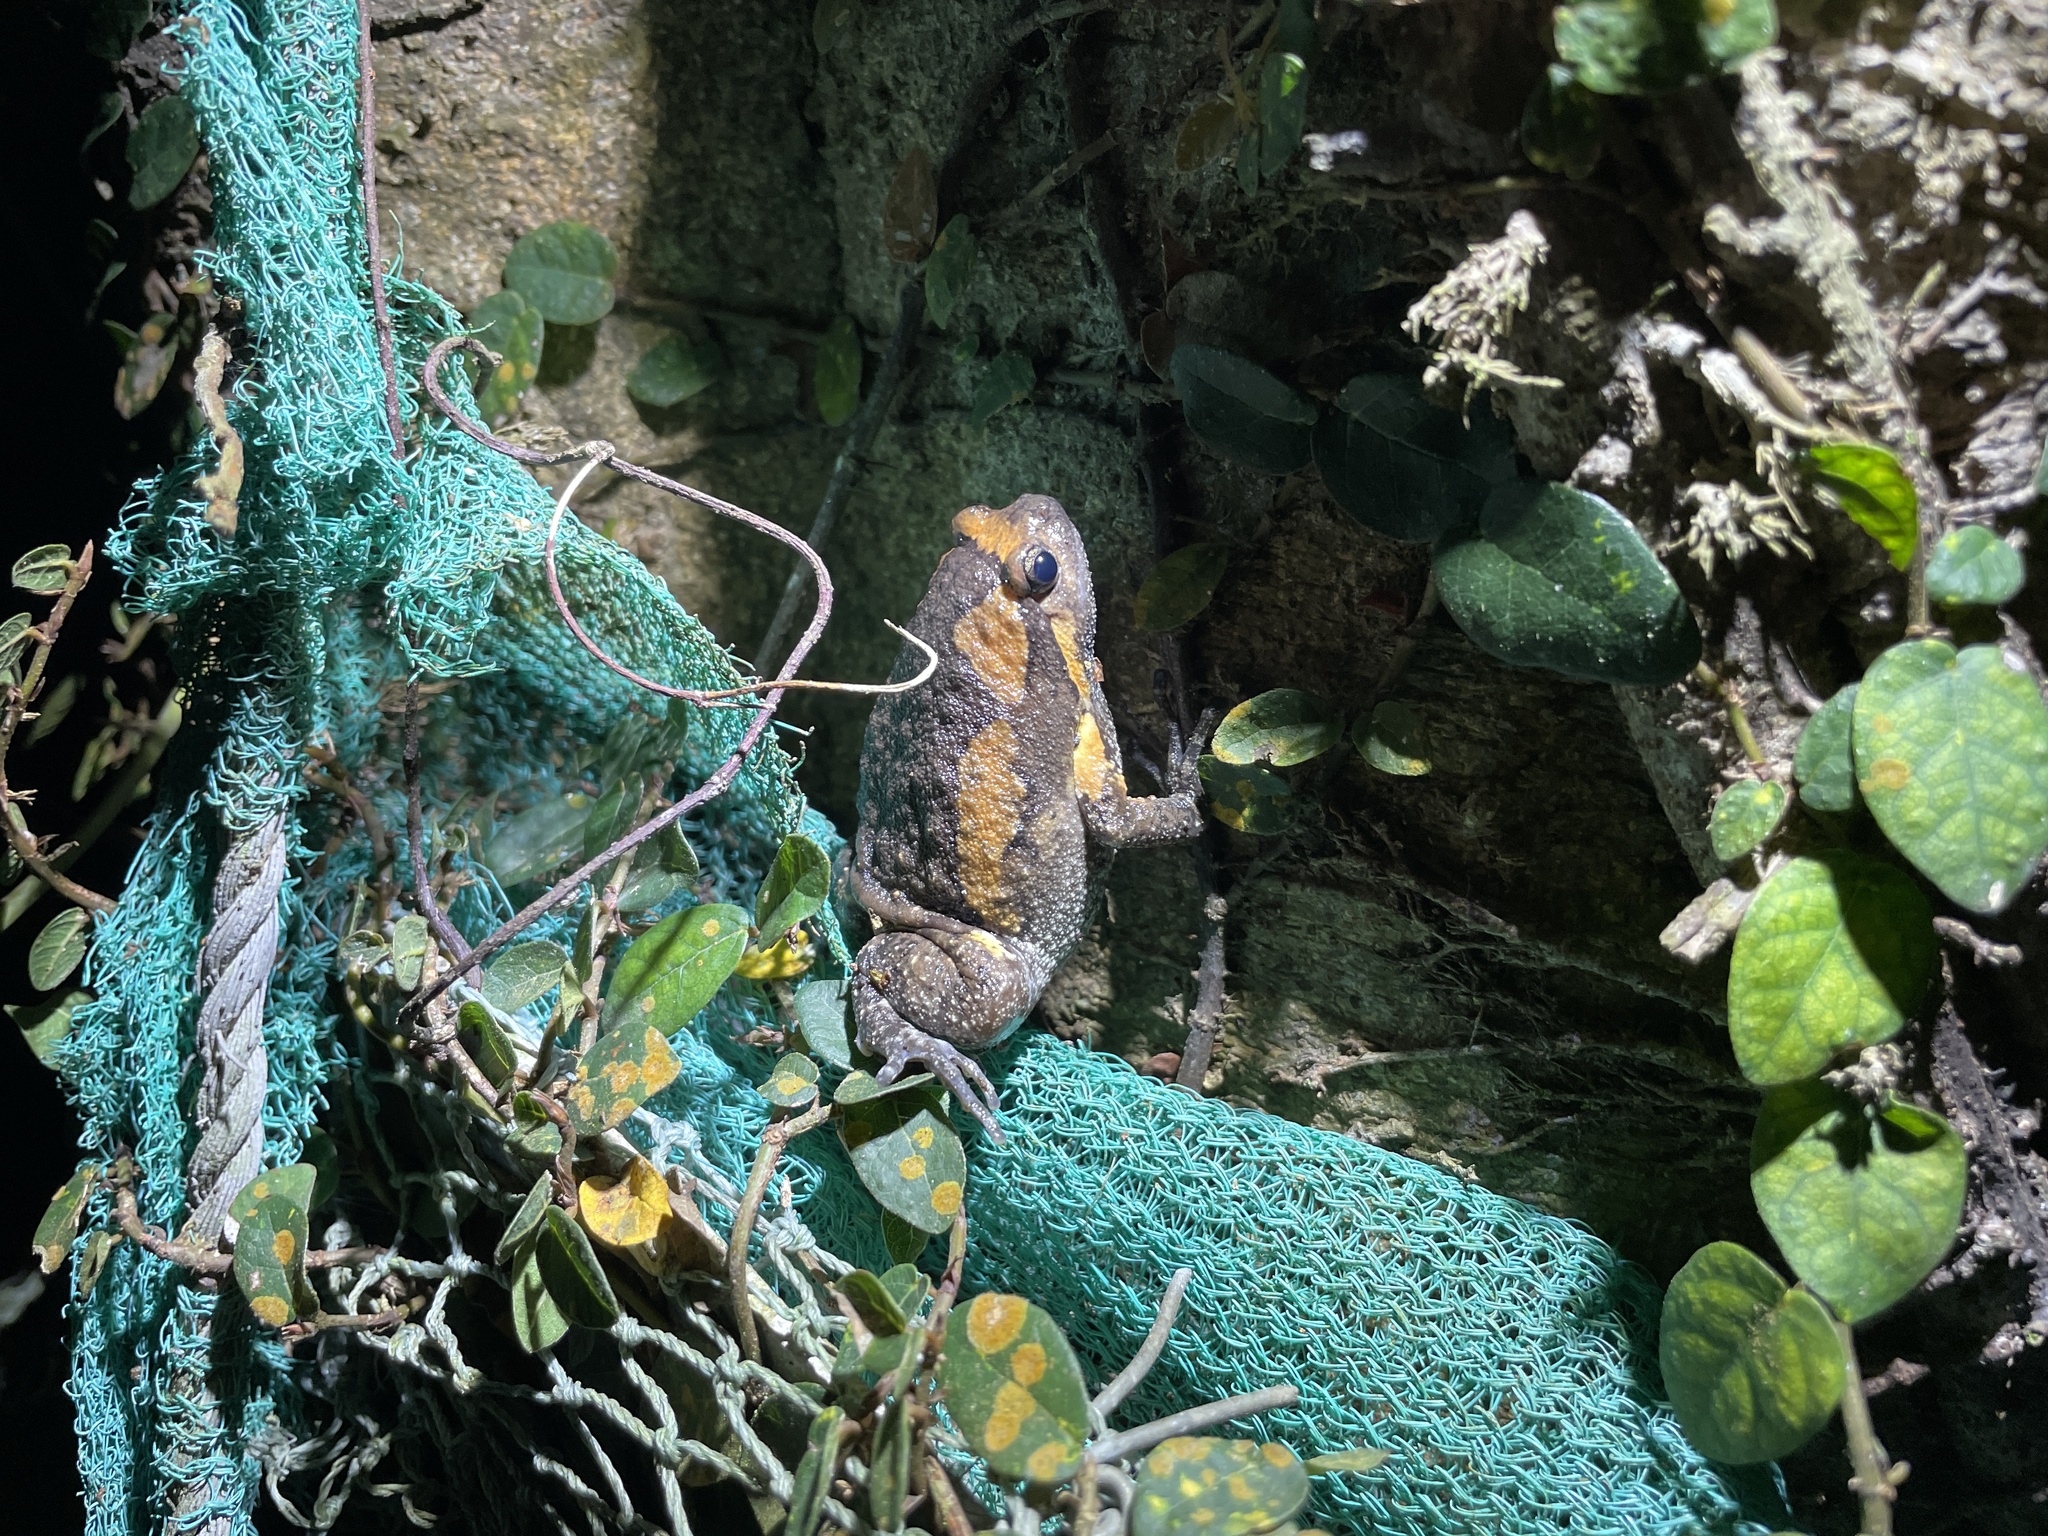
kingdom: Animalia
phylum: Chordata
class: Amphibia
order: Anura
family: Microhylidae
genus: Kaloula
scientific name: Kaloula pulchra
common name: Common,banded bullfrog
